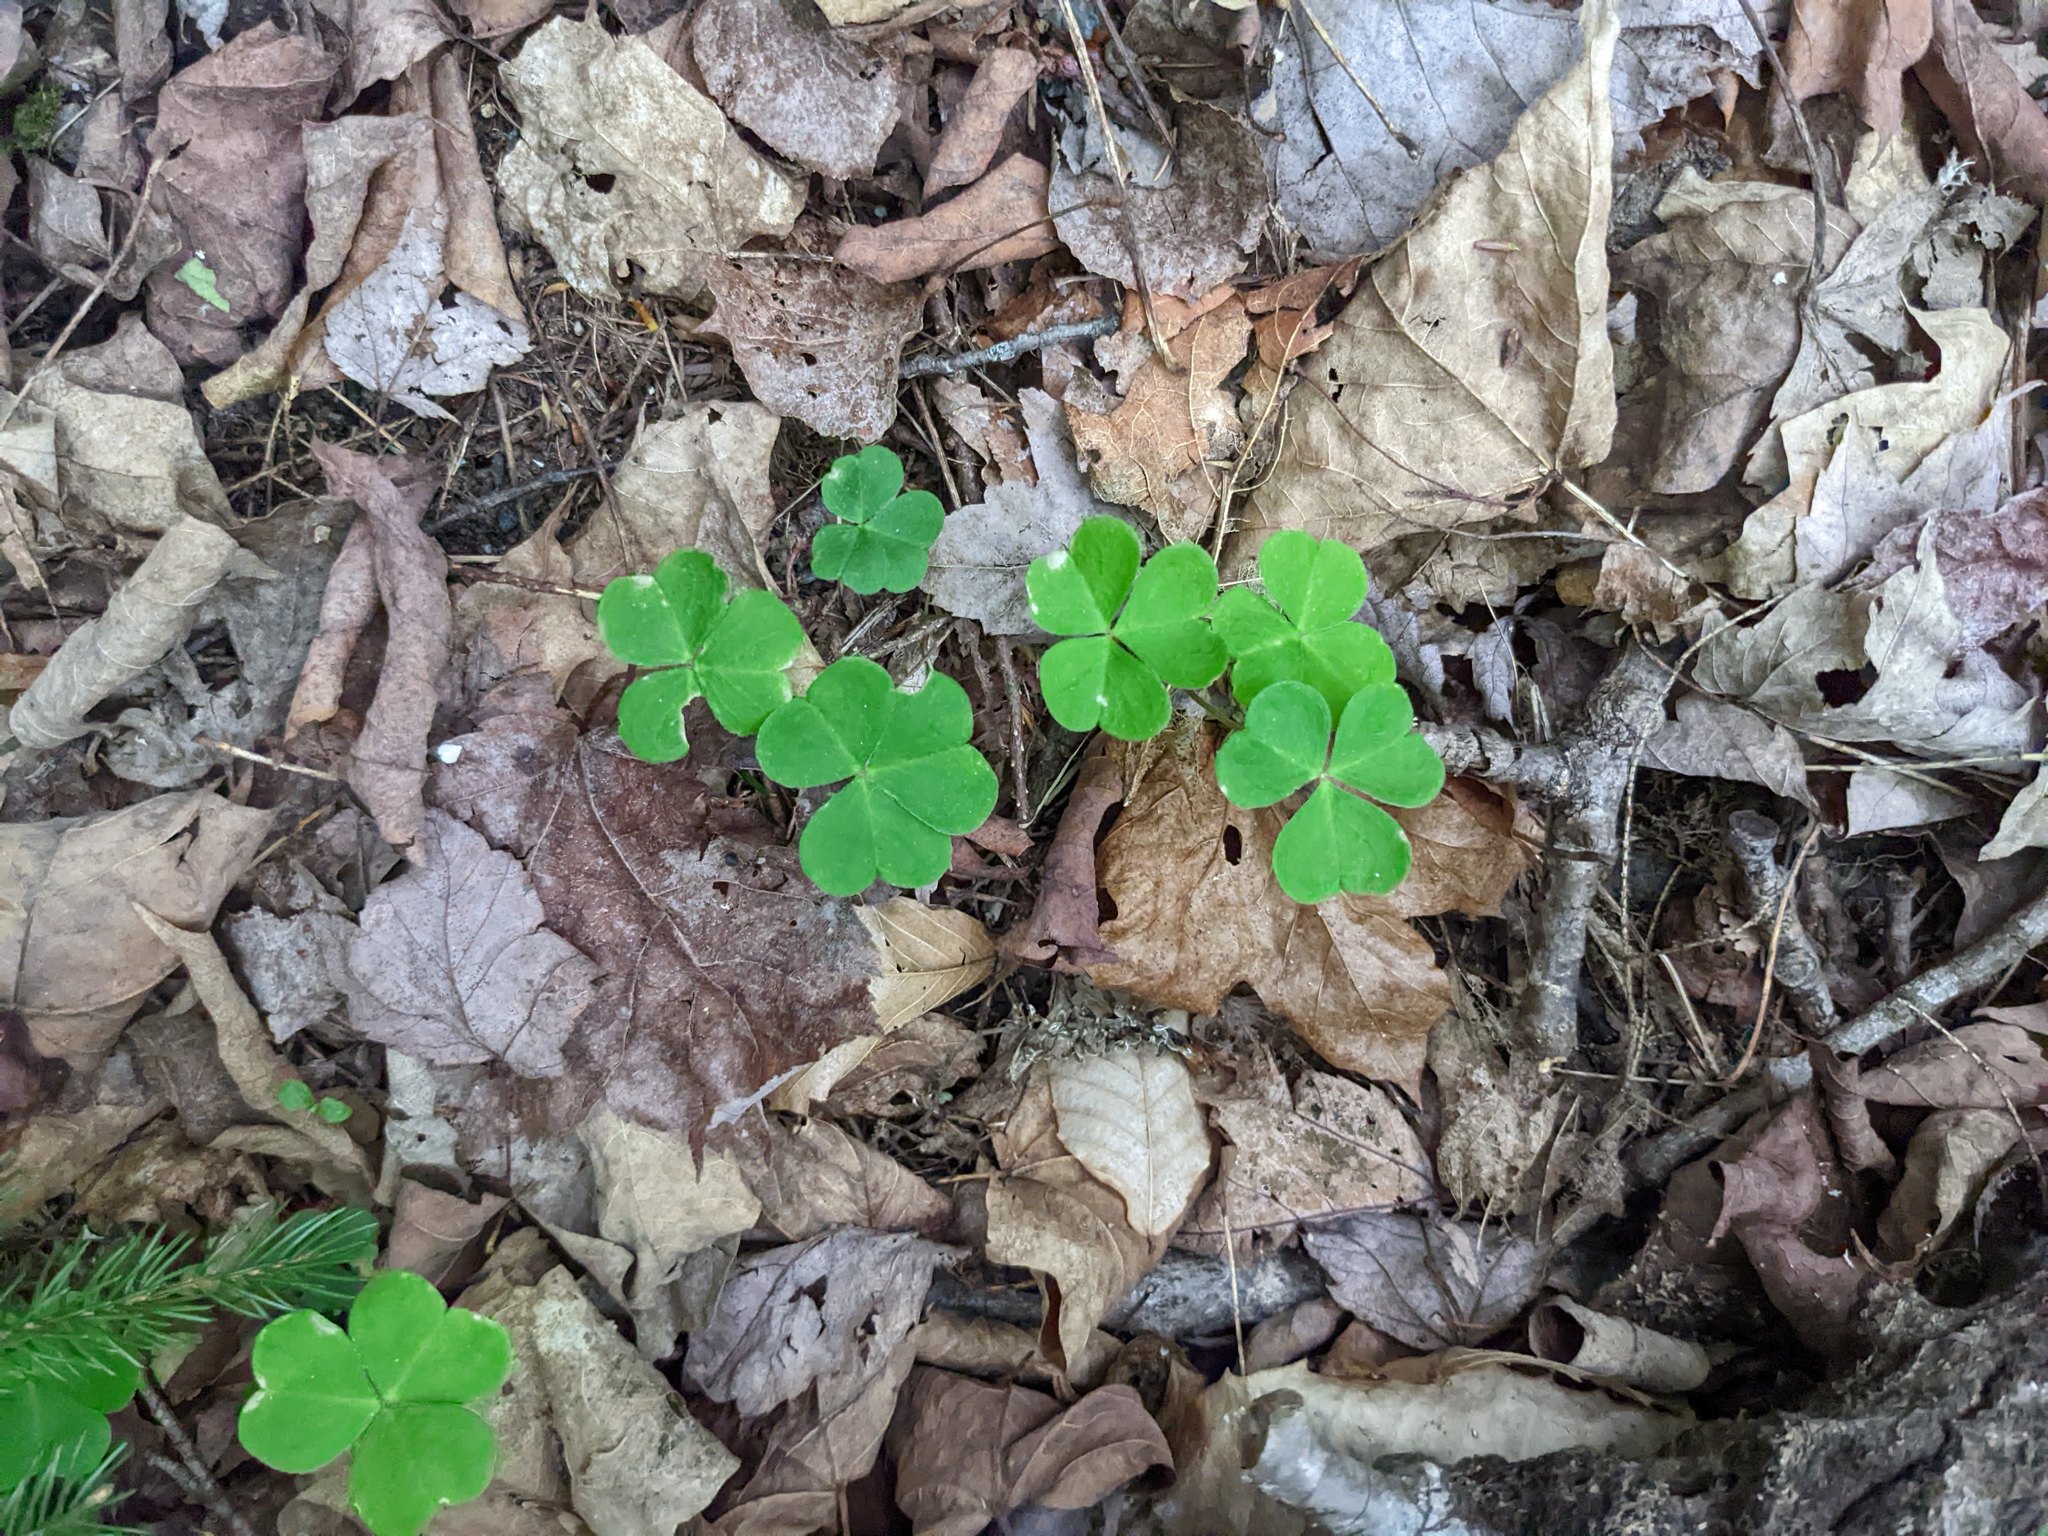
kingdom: Plantae
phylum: Tracheophyta
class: Magnoliopsida
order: Oxalidales
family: Oxalidaceae
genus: Oxalis
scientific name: Oxalis montana
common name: American wood-sorrel
